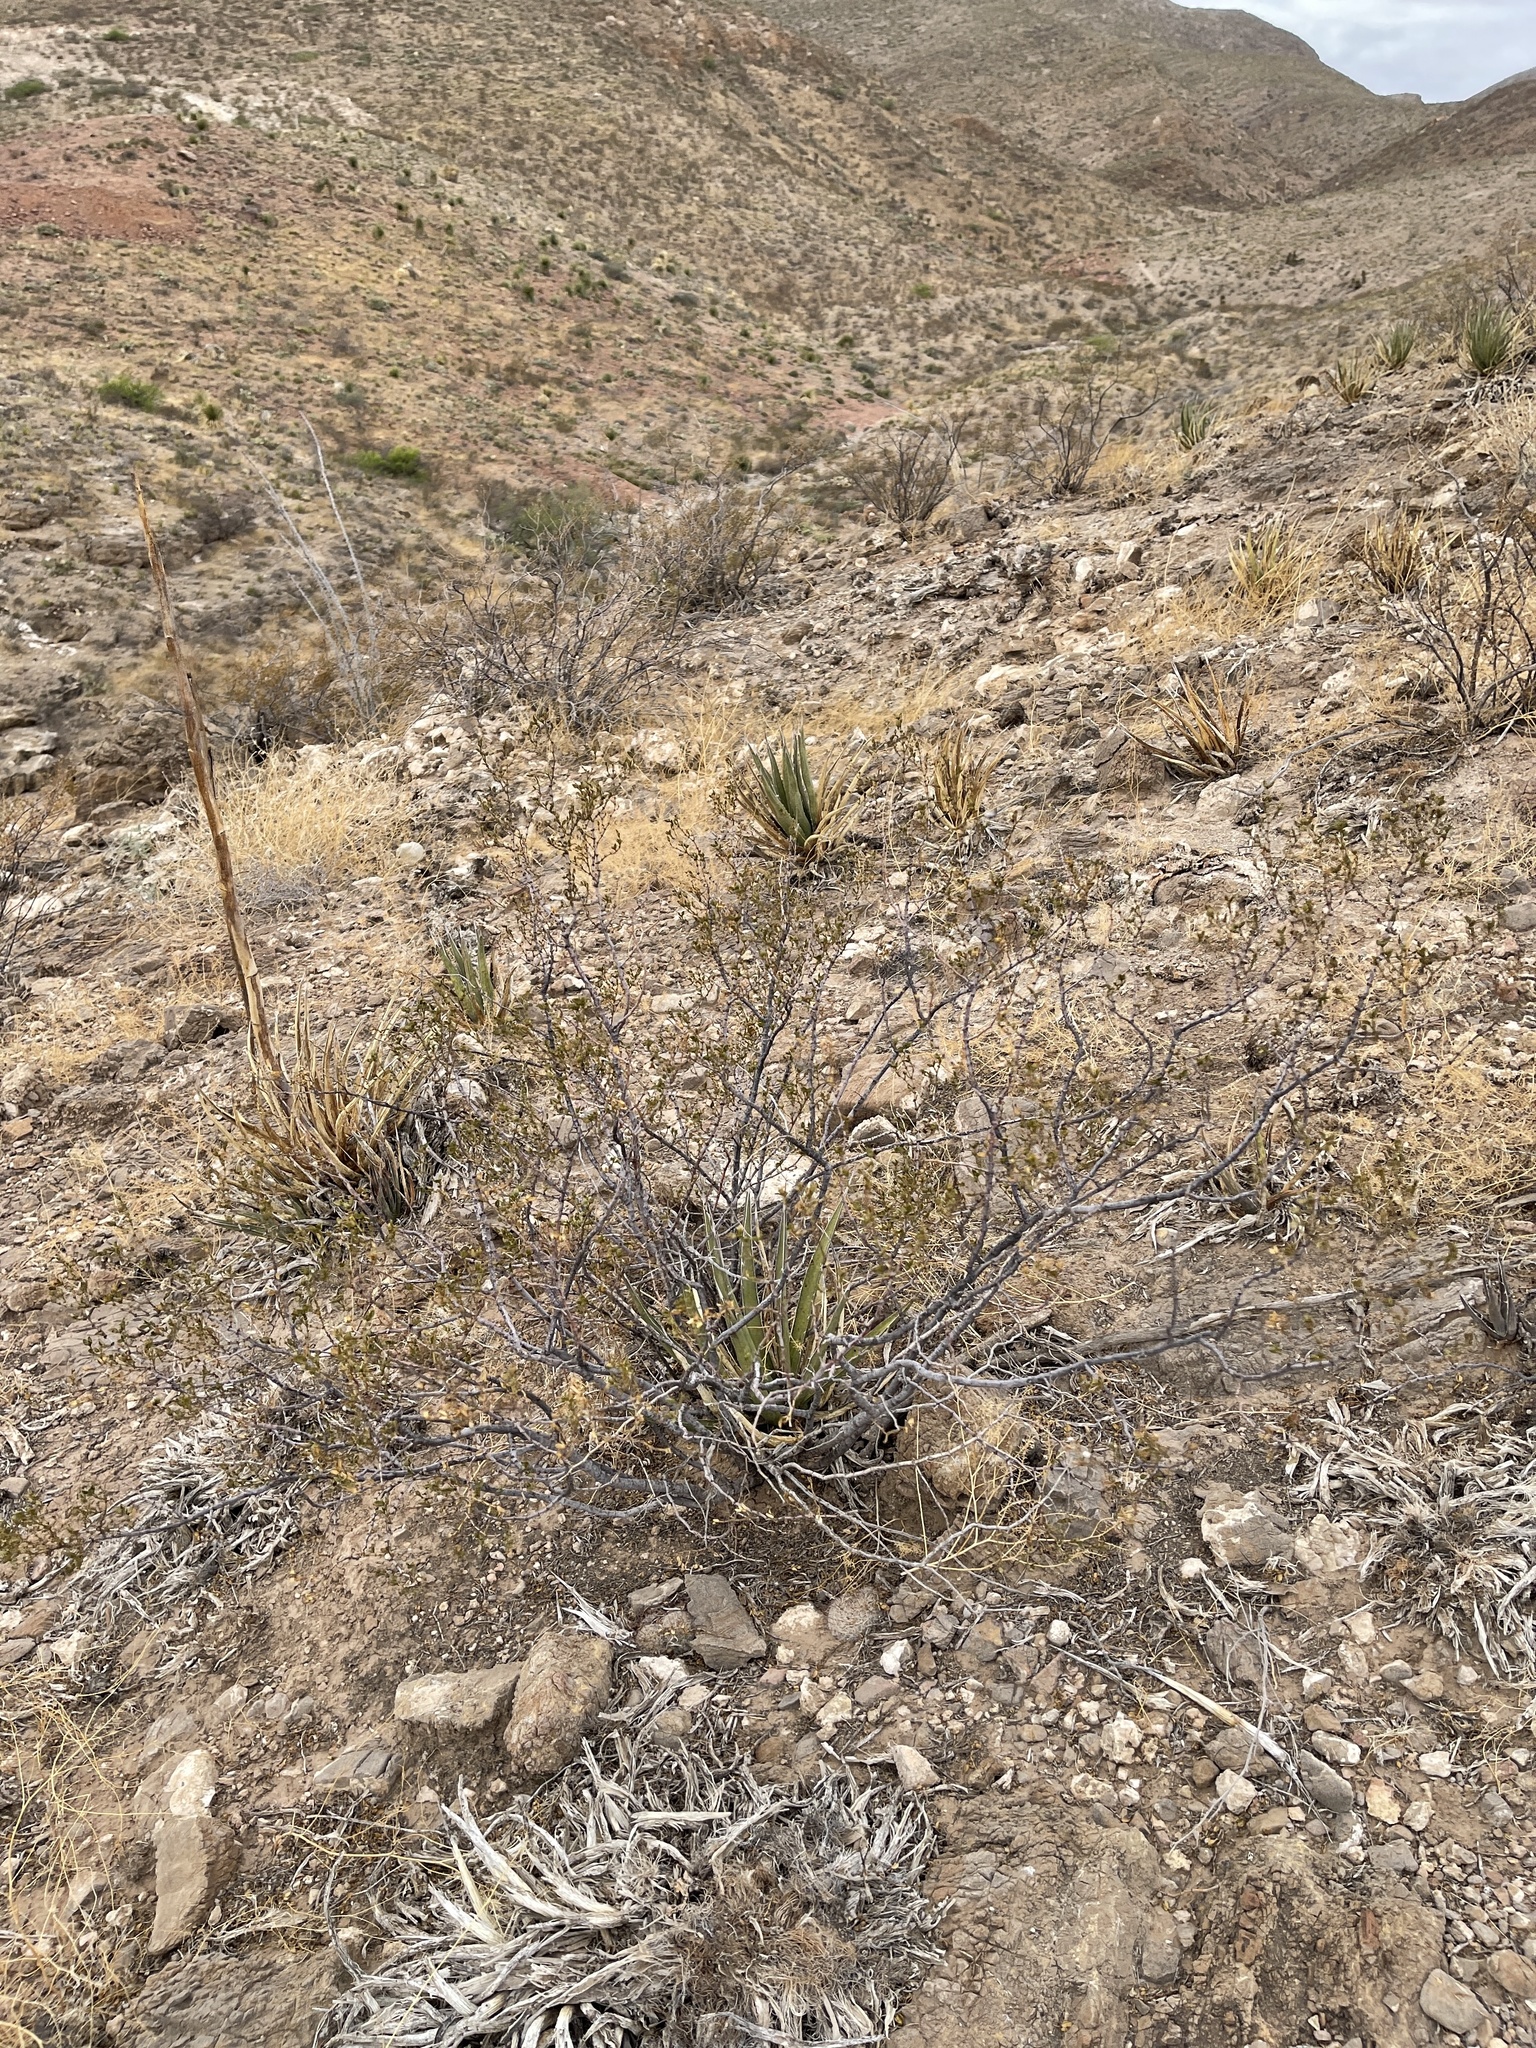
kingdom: Plantae
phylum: Tracheophyta
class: Magnoliopsida
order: Zygophyllales
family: Zygophyllaceae
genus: Larrea
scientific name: Larrea tridentata
